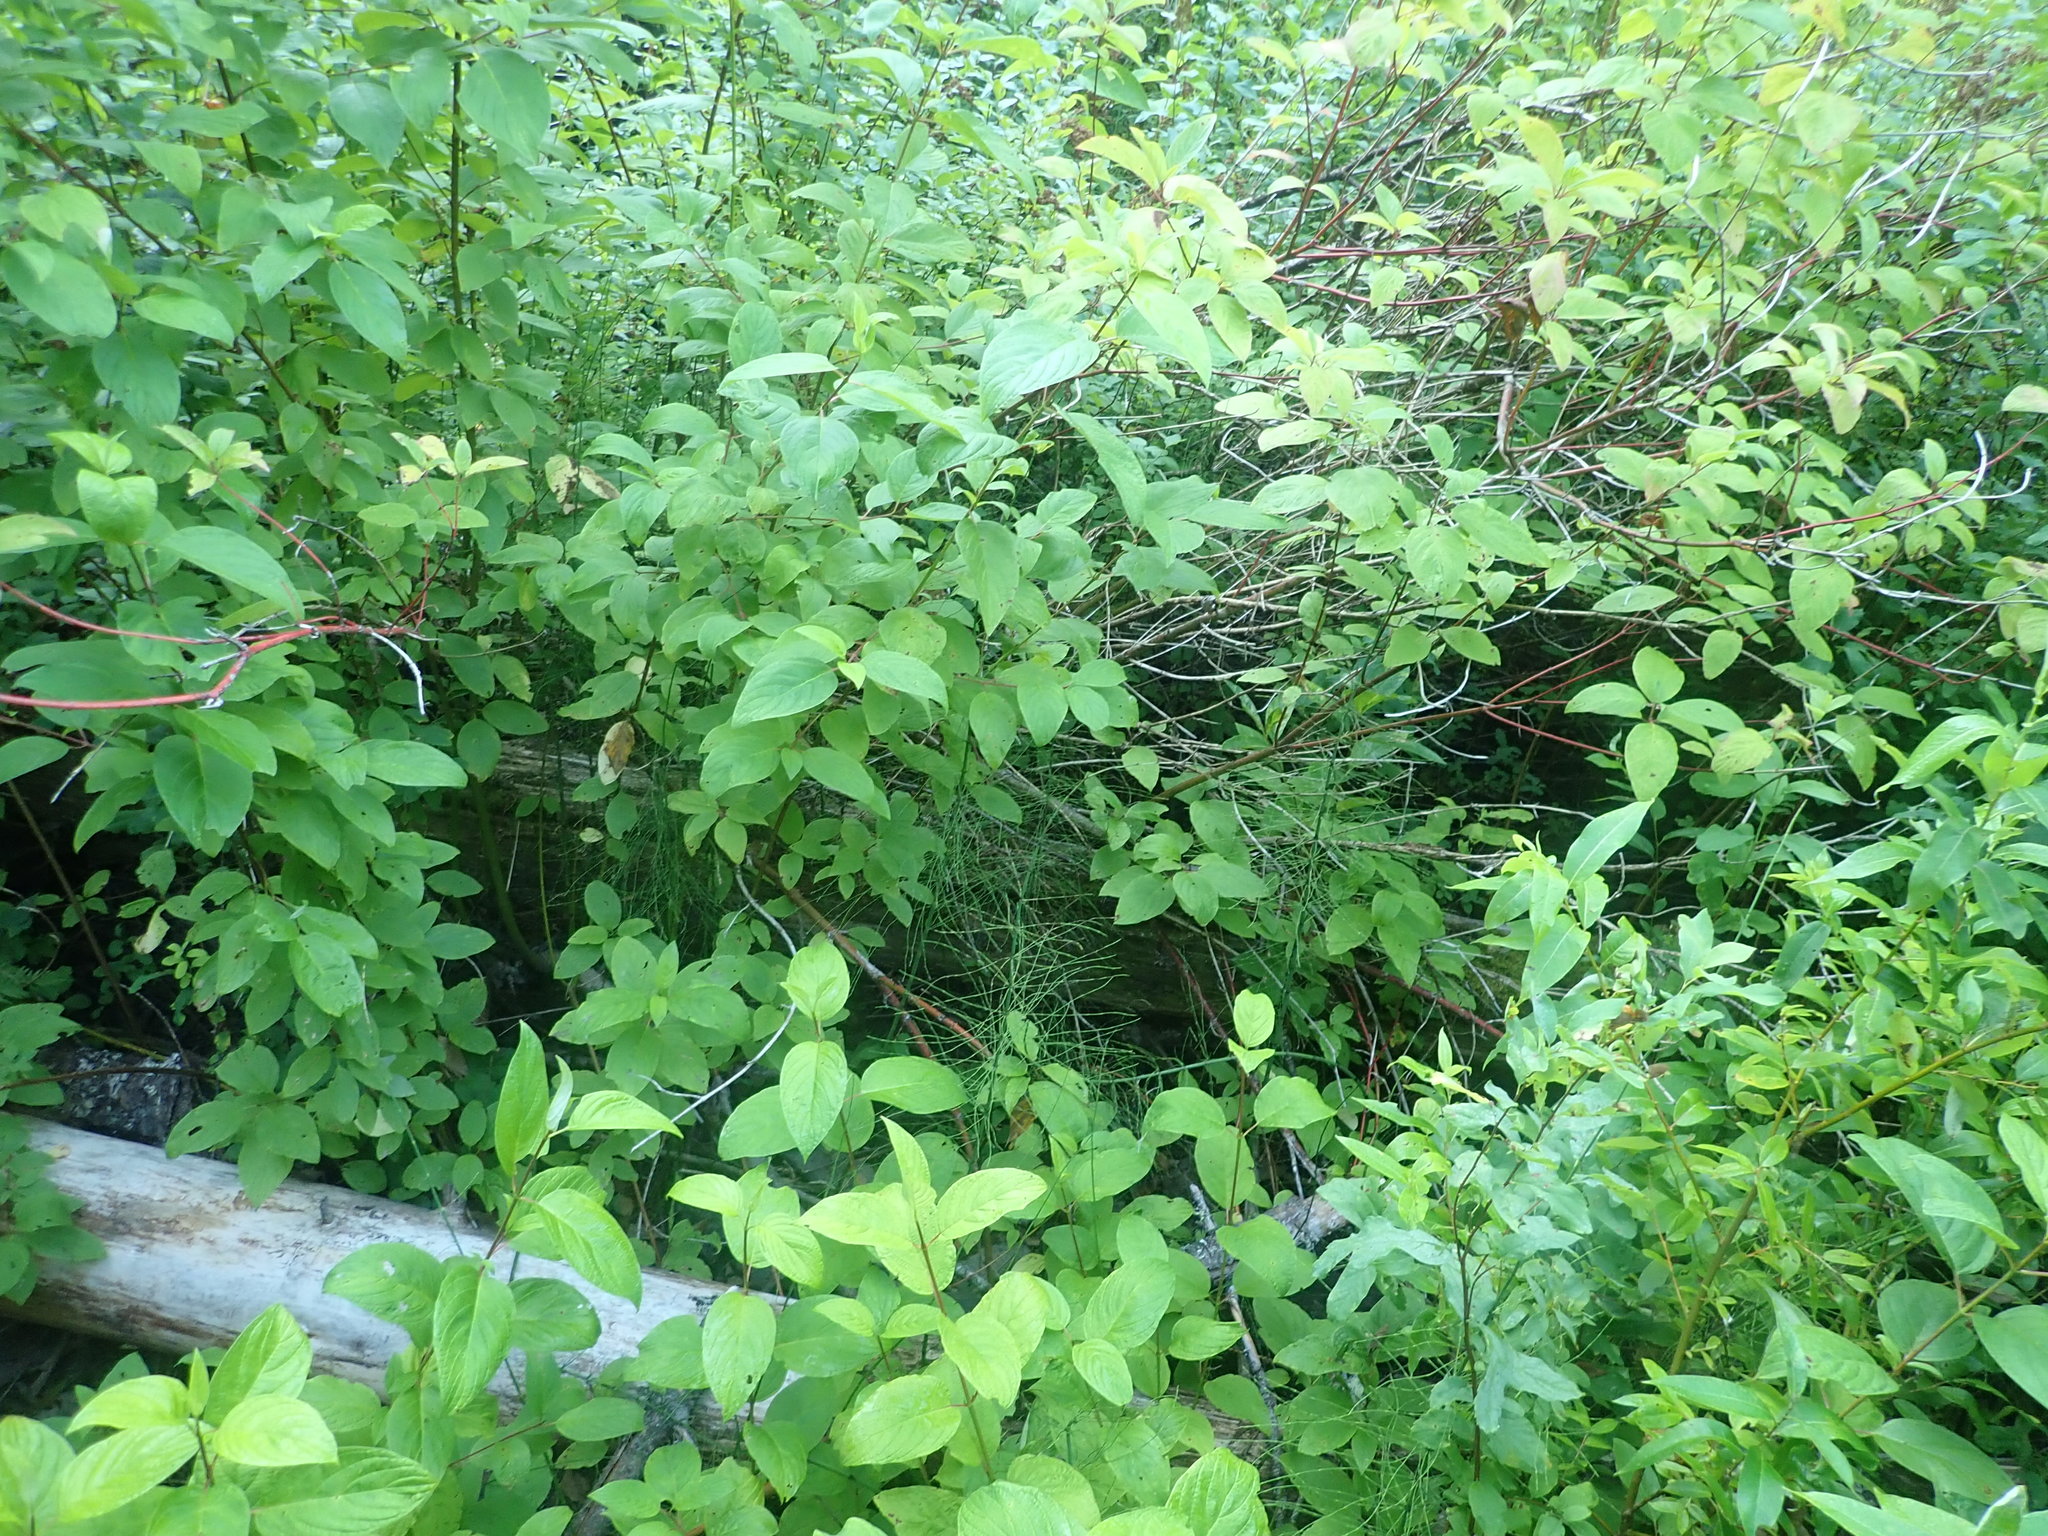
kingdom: Plantae
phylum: Tracheophyta
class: Magnoliopsida
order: Malpighiales
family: Salicaceae
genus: Salix
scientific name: Salix sitchensis
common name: Sitka willow
